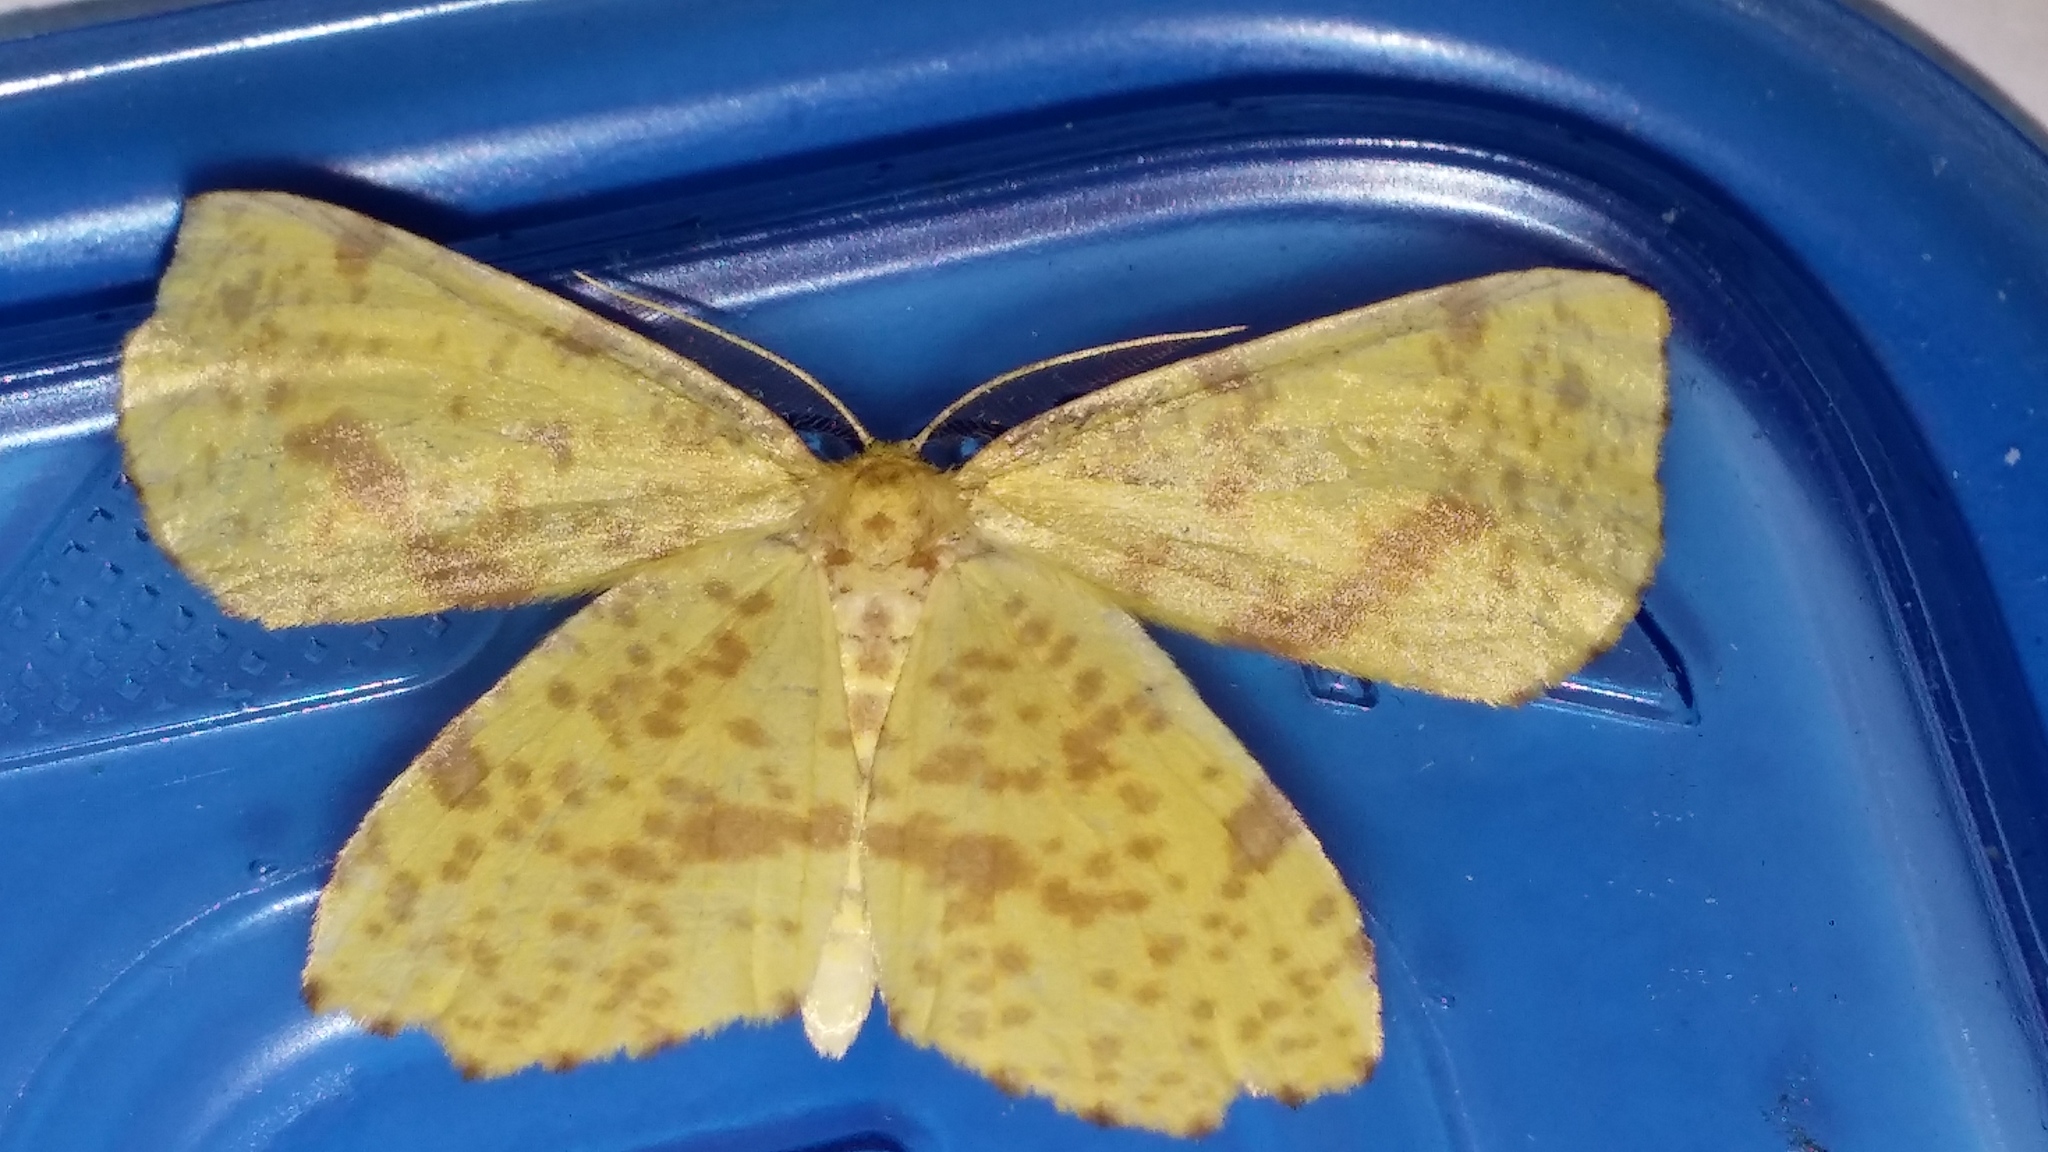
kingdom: Animalia
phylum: Arthropoda
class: Insecta
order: Lepidoptera
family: Geometridae
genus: Xanthotype
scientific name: Xanthotype
